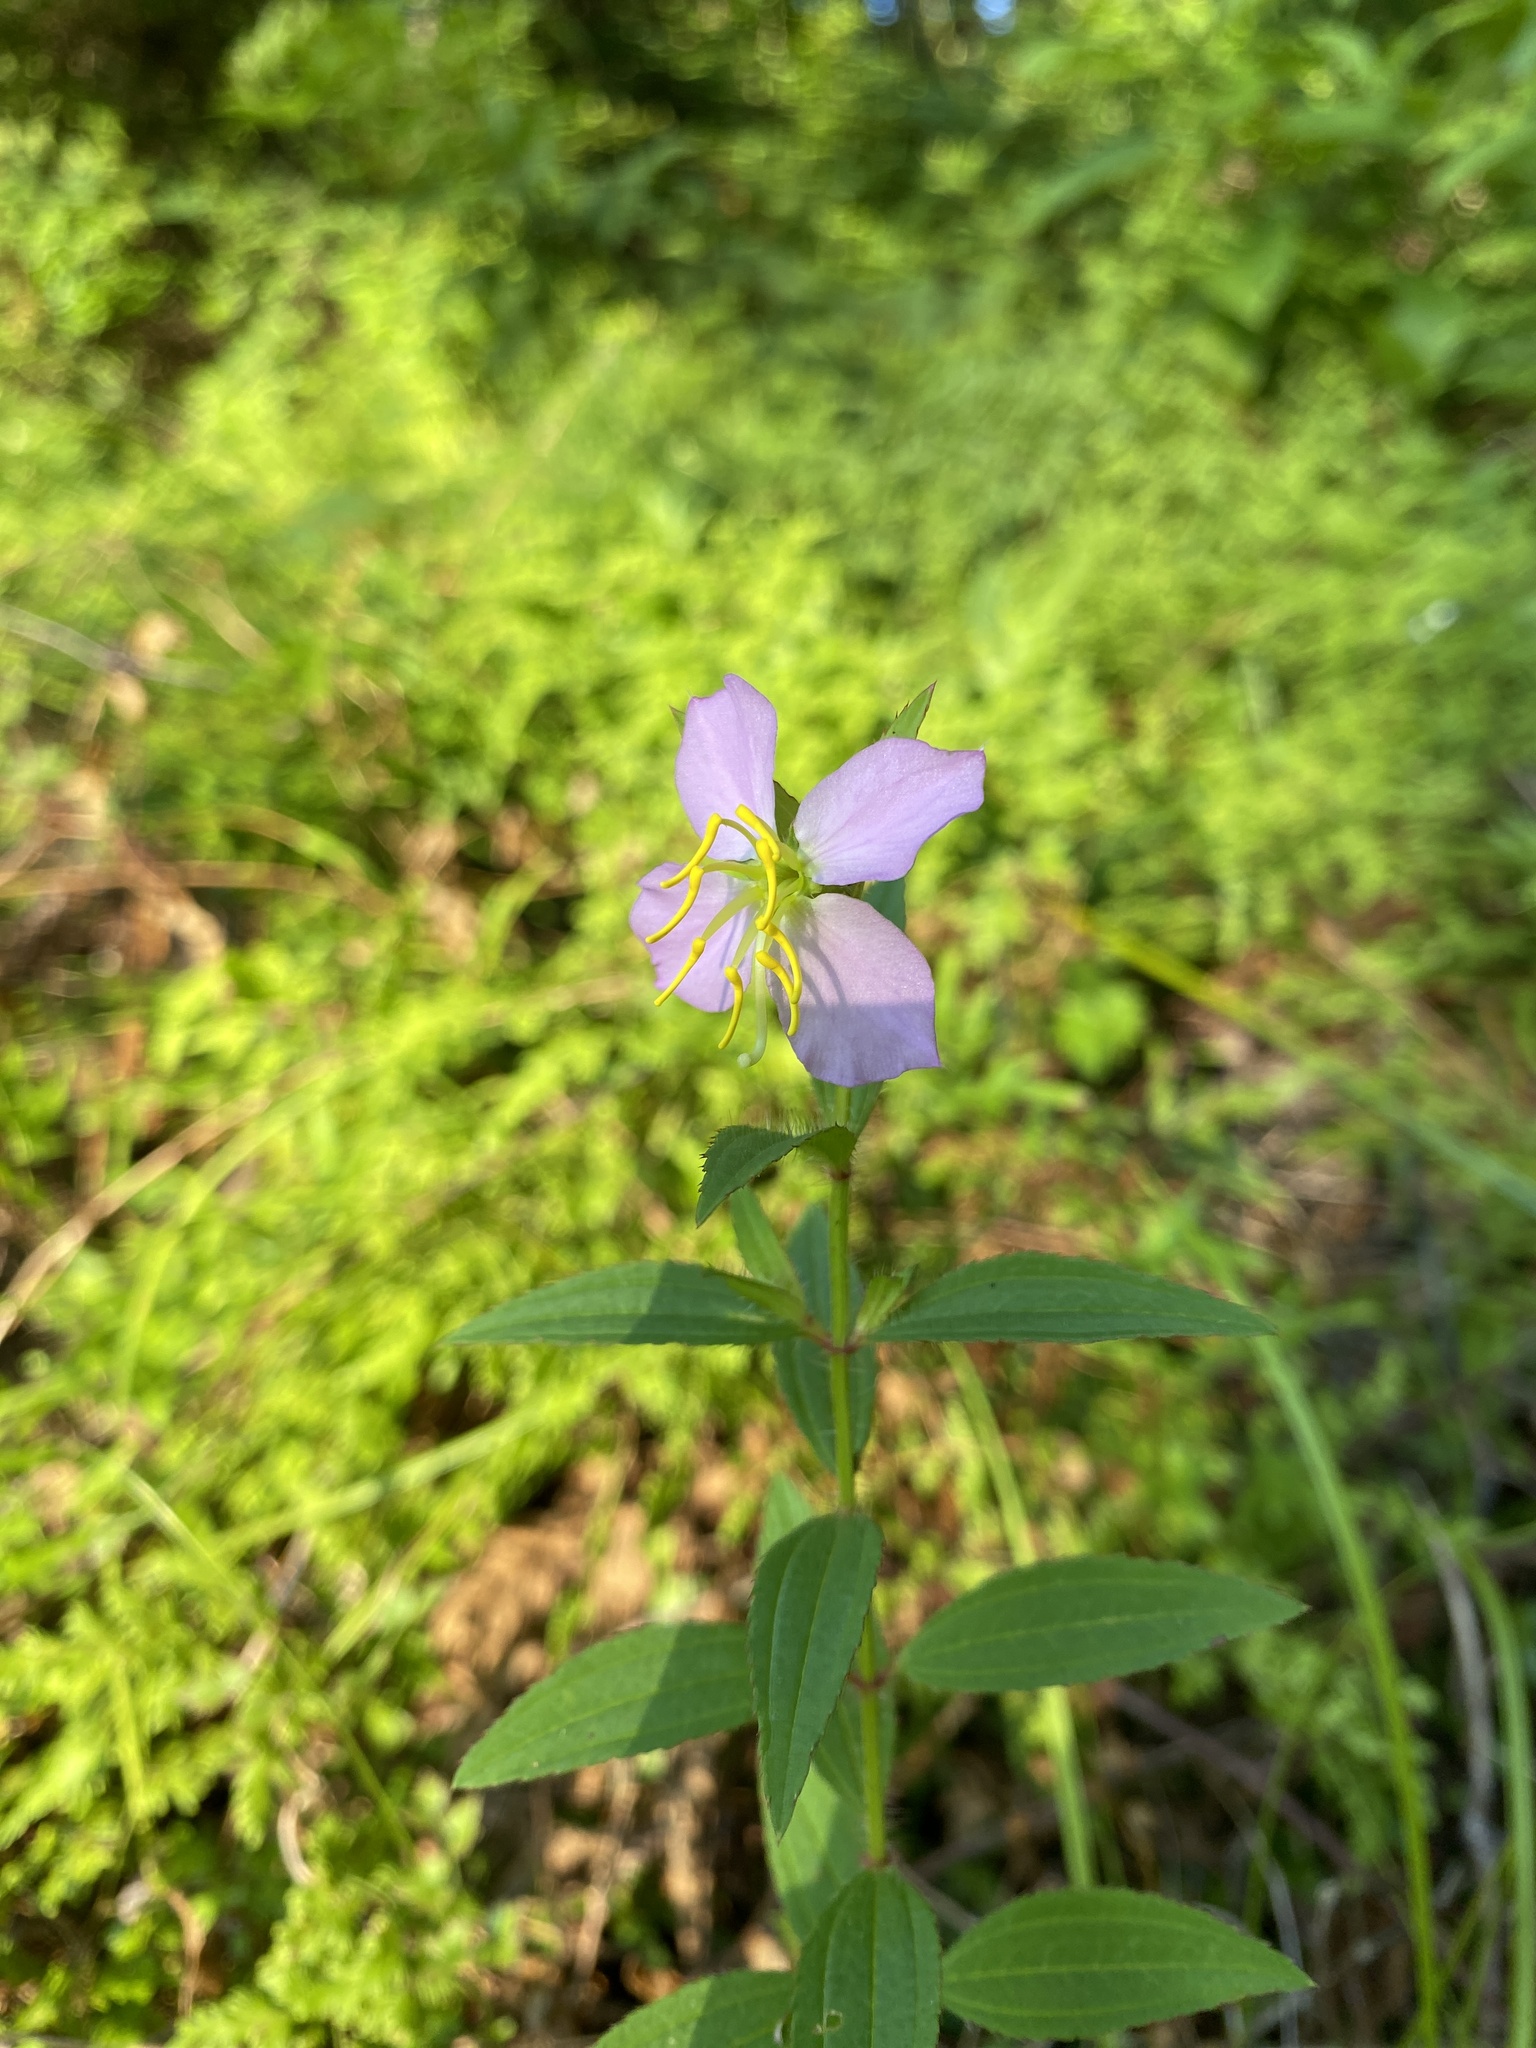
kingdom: Plantae
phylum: Tracheophyta
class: Magnoliopsida
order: Myrtales
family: Melastomataceae
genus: Rhexia
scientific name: Rhexia mariana
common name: Dull meadow-pitcher
